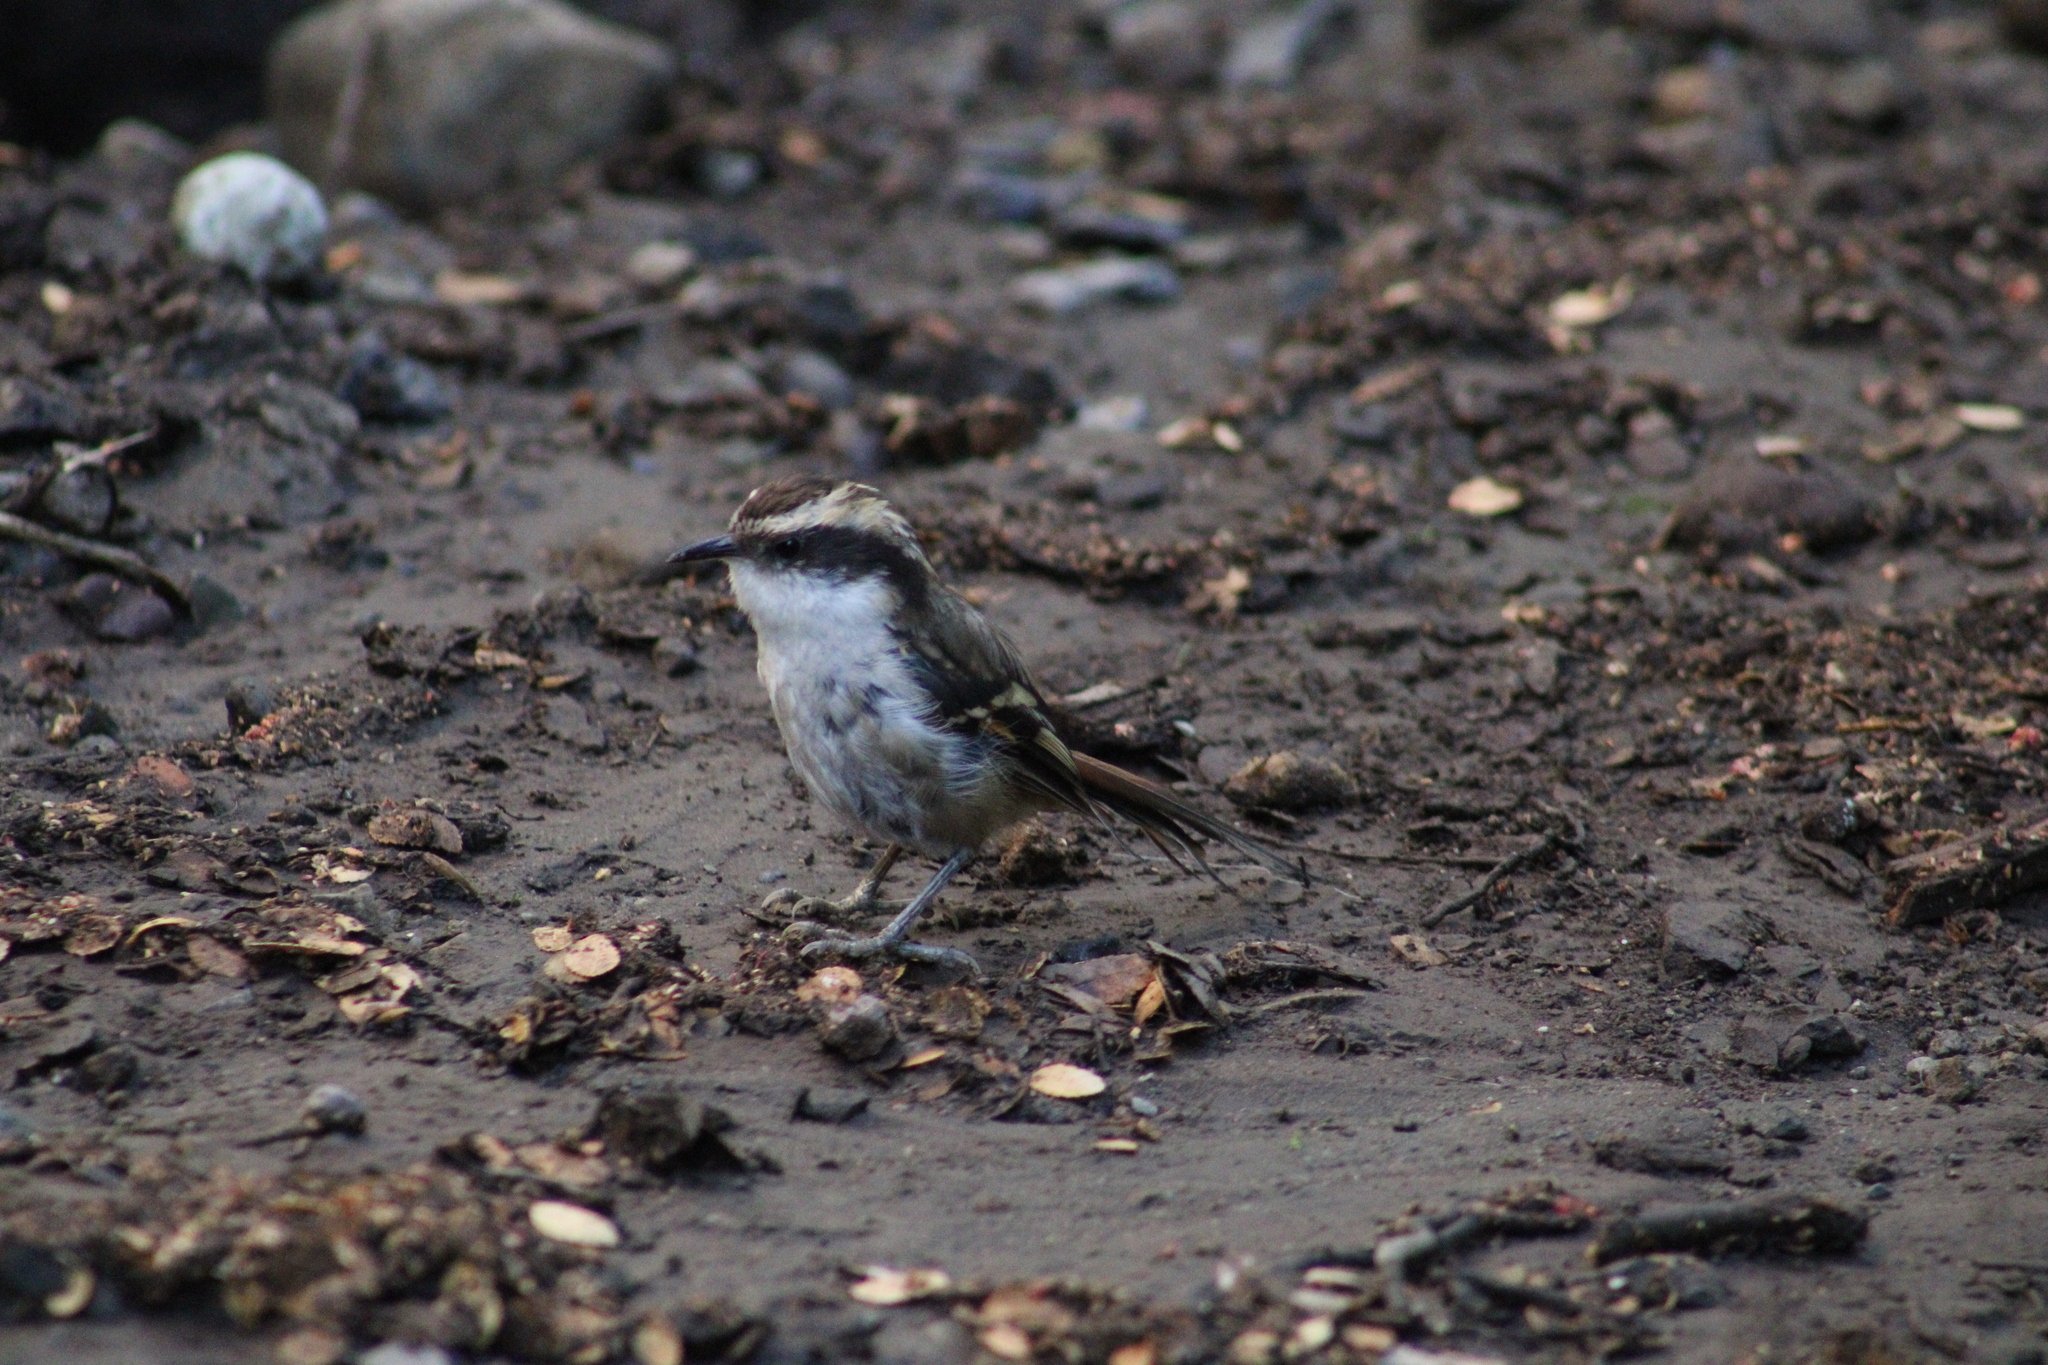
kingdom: Animalia
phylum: Chordata
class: Aves
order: Passeriformes
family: Furnariidae
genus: Aphrastura
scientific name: Aphrastura spinicauda
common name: Thorn-tailed rayadito
